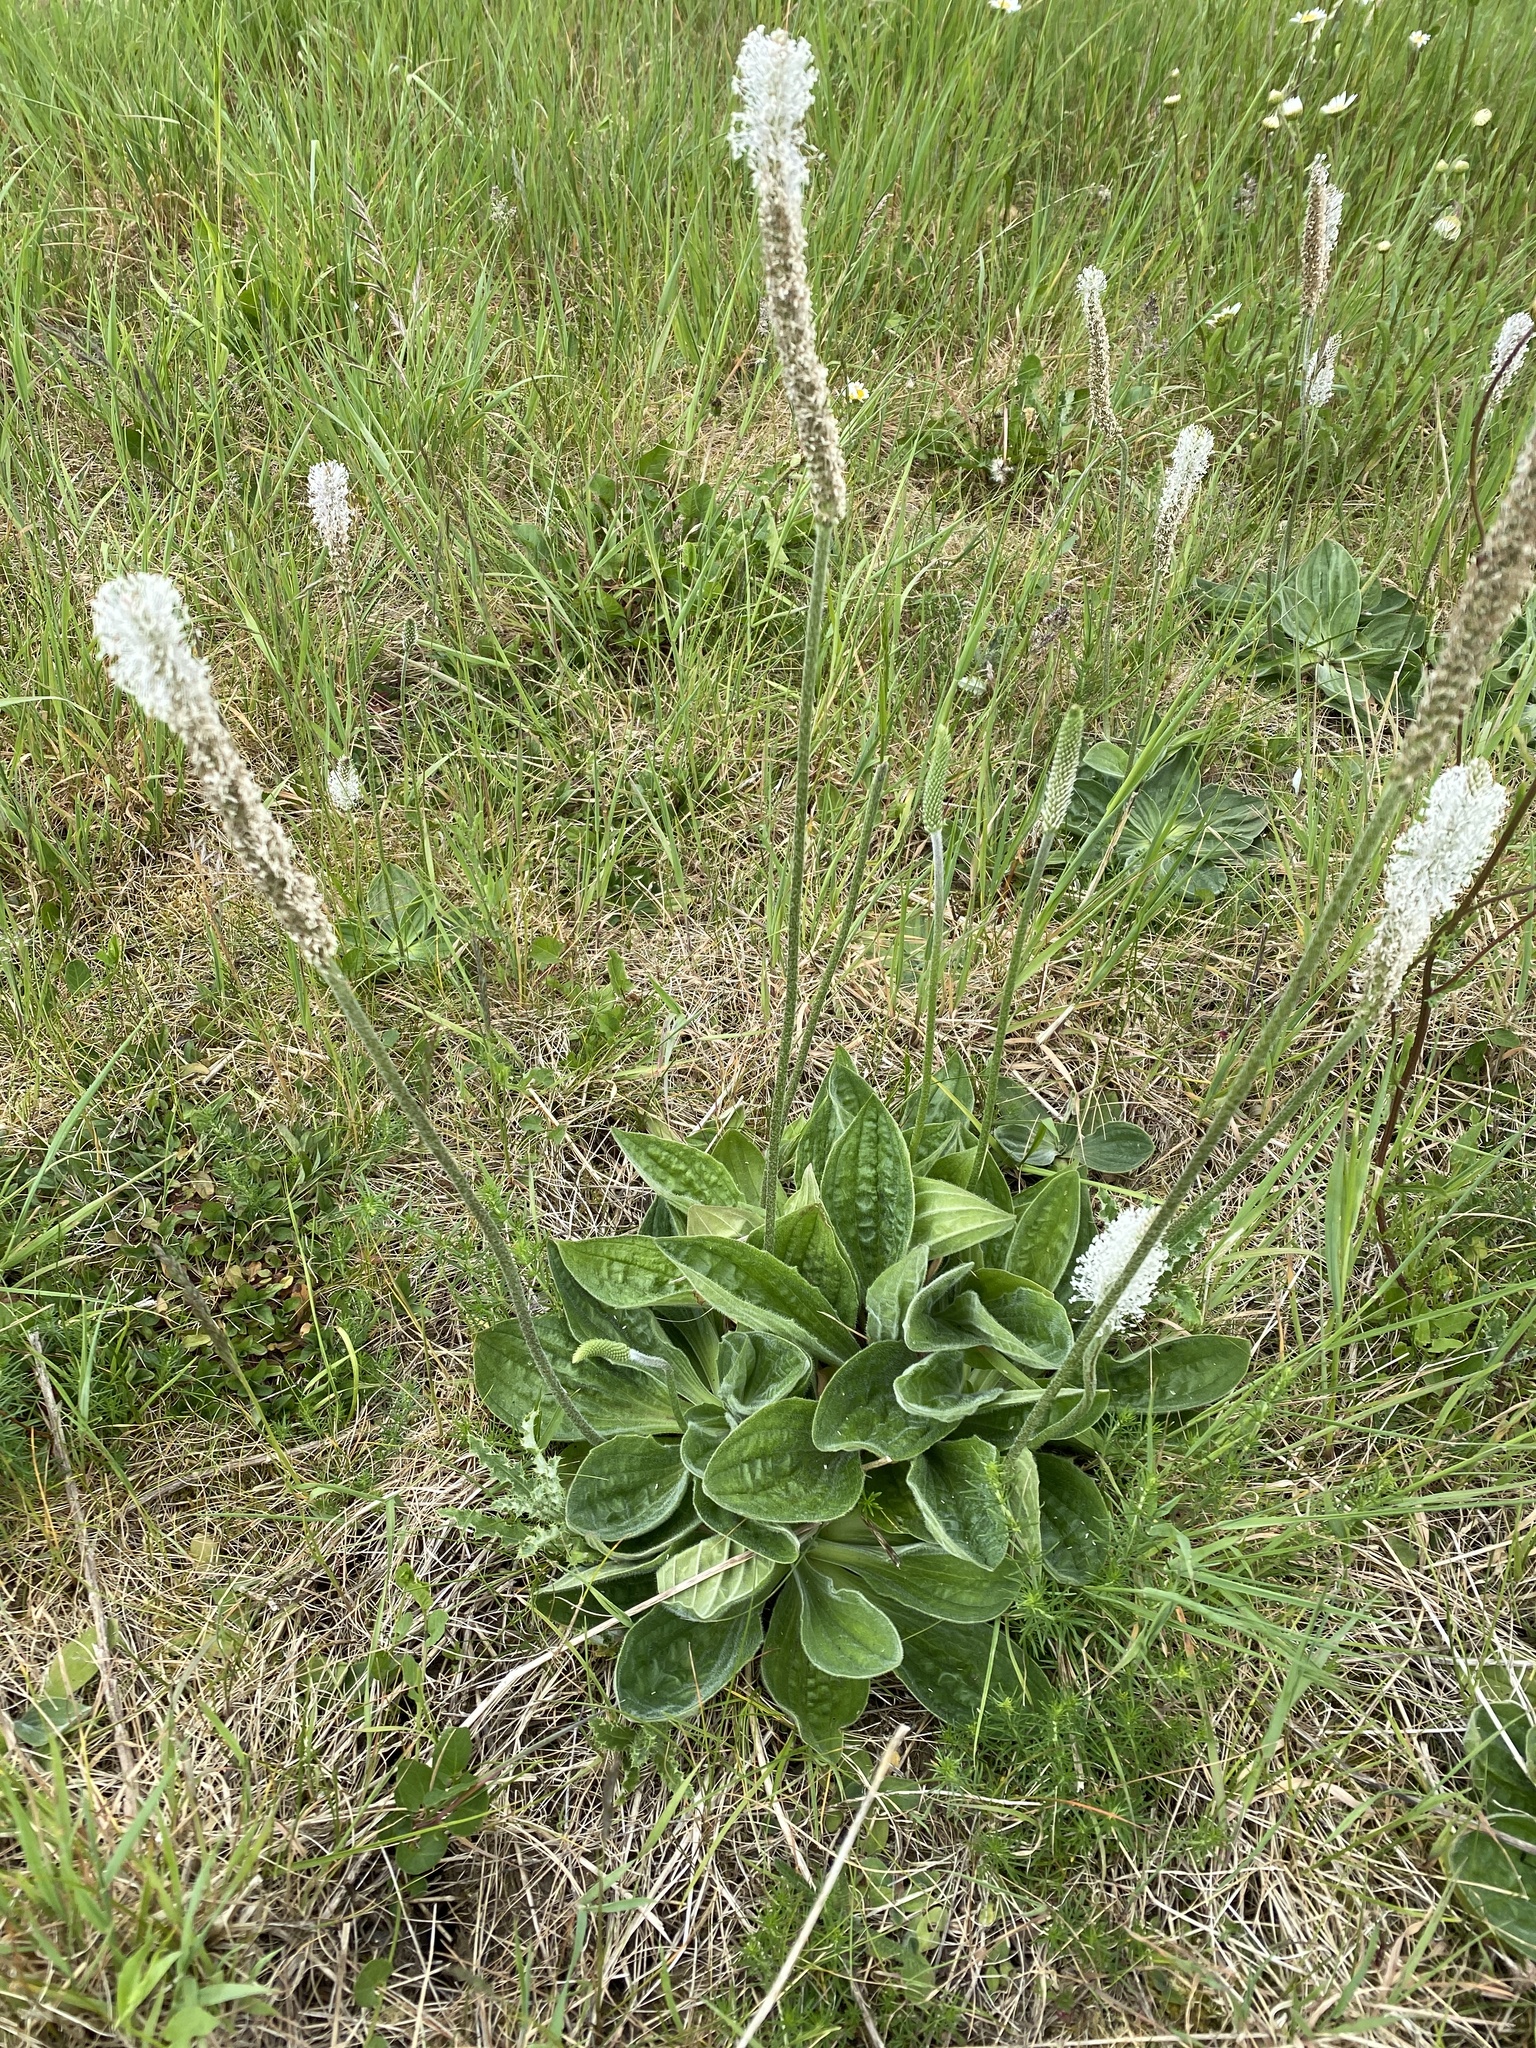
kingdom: Plantae
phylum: Tracheophyta
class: Magnoliopsida
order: Lamiales
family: Plantaginaceae
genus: Plantago
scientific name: Plantago media
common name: Hoary plantain
